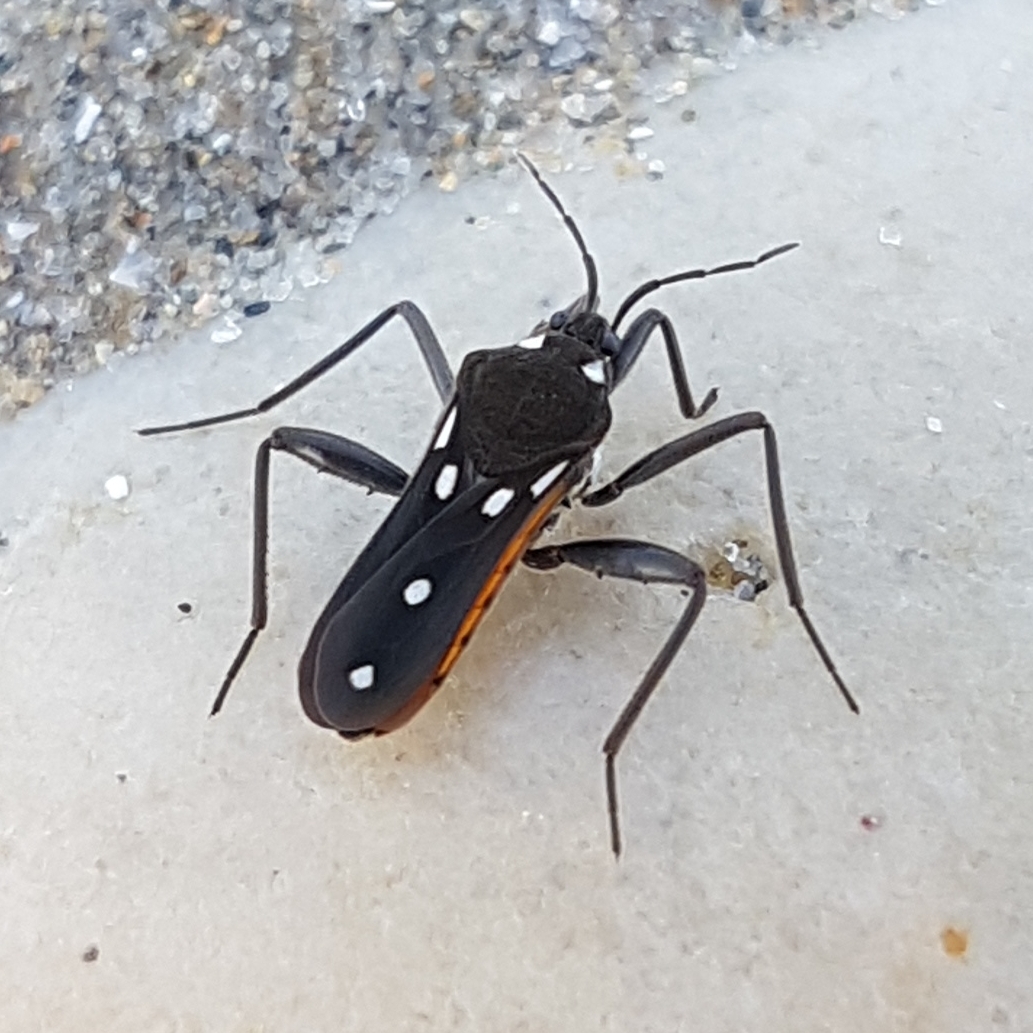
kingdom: Animalia
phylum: Arthropoda
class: Insecta
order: Hemiptera
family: Veliidae
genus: Velia
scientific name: Velia rivulorum
